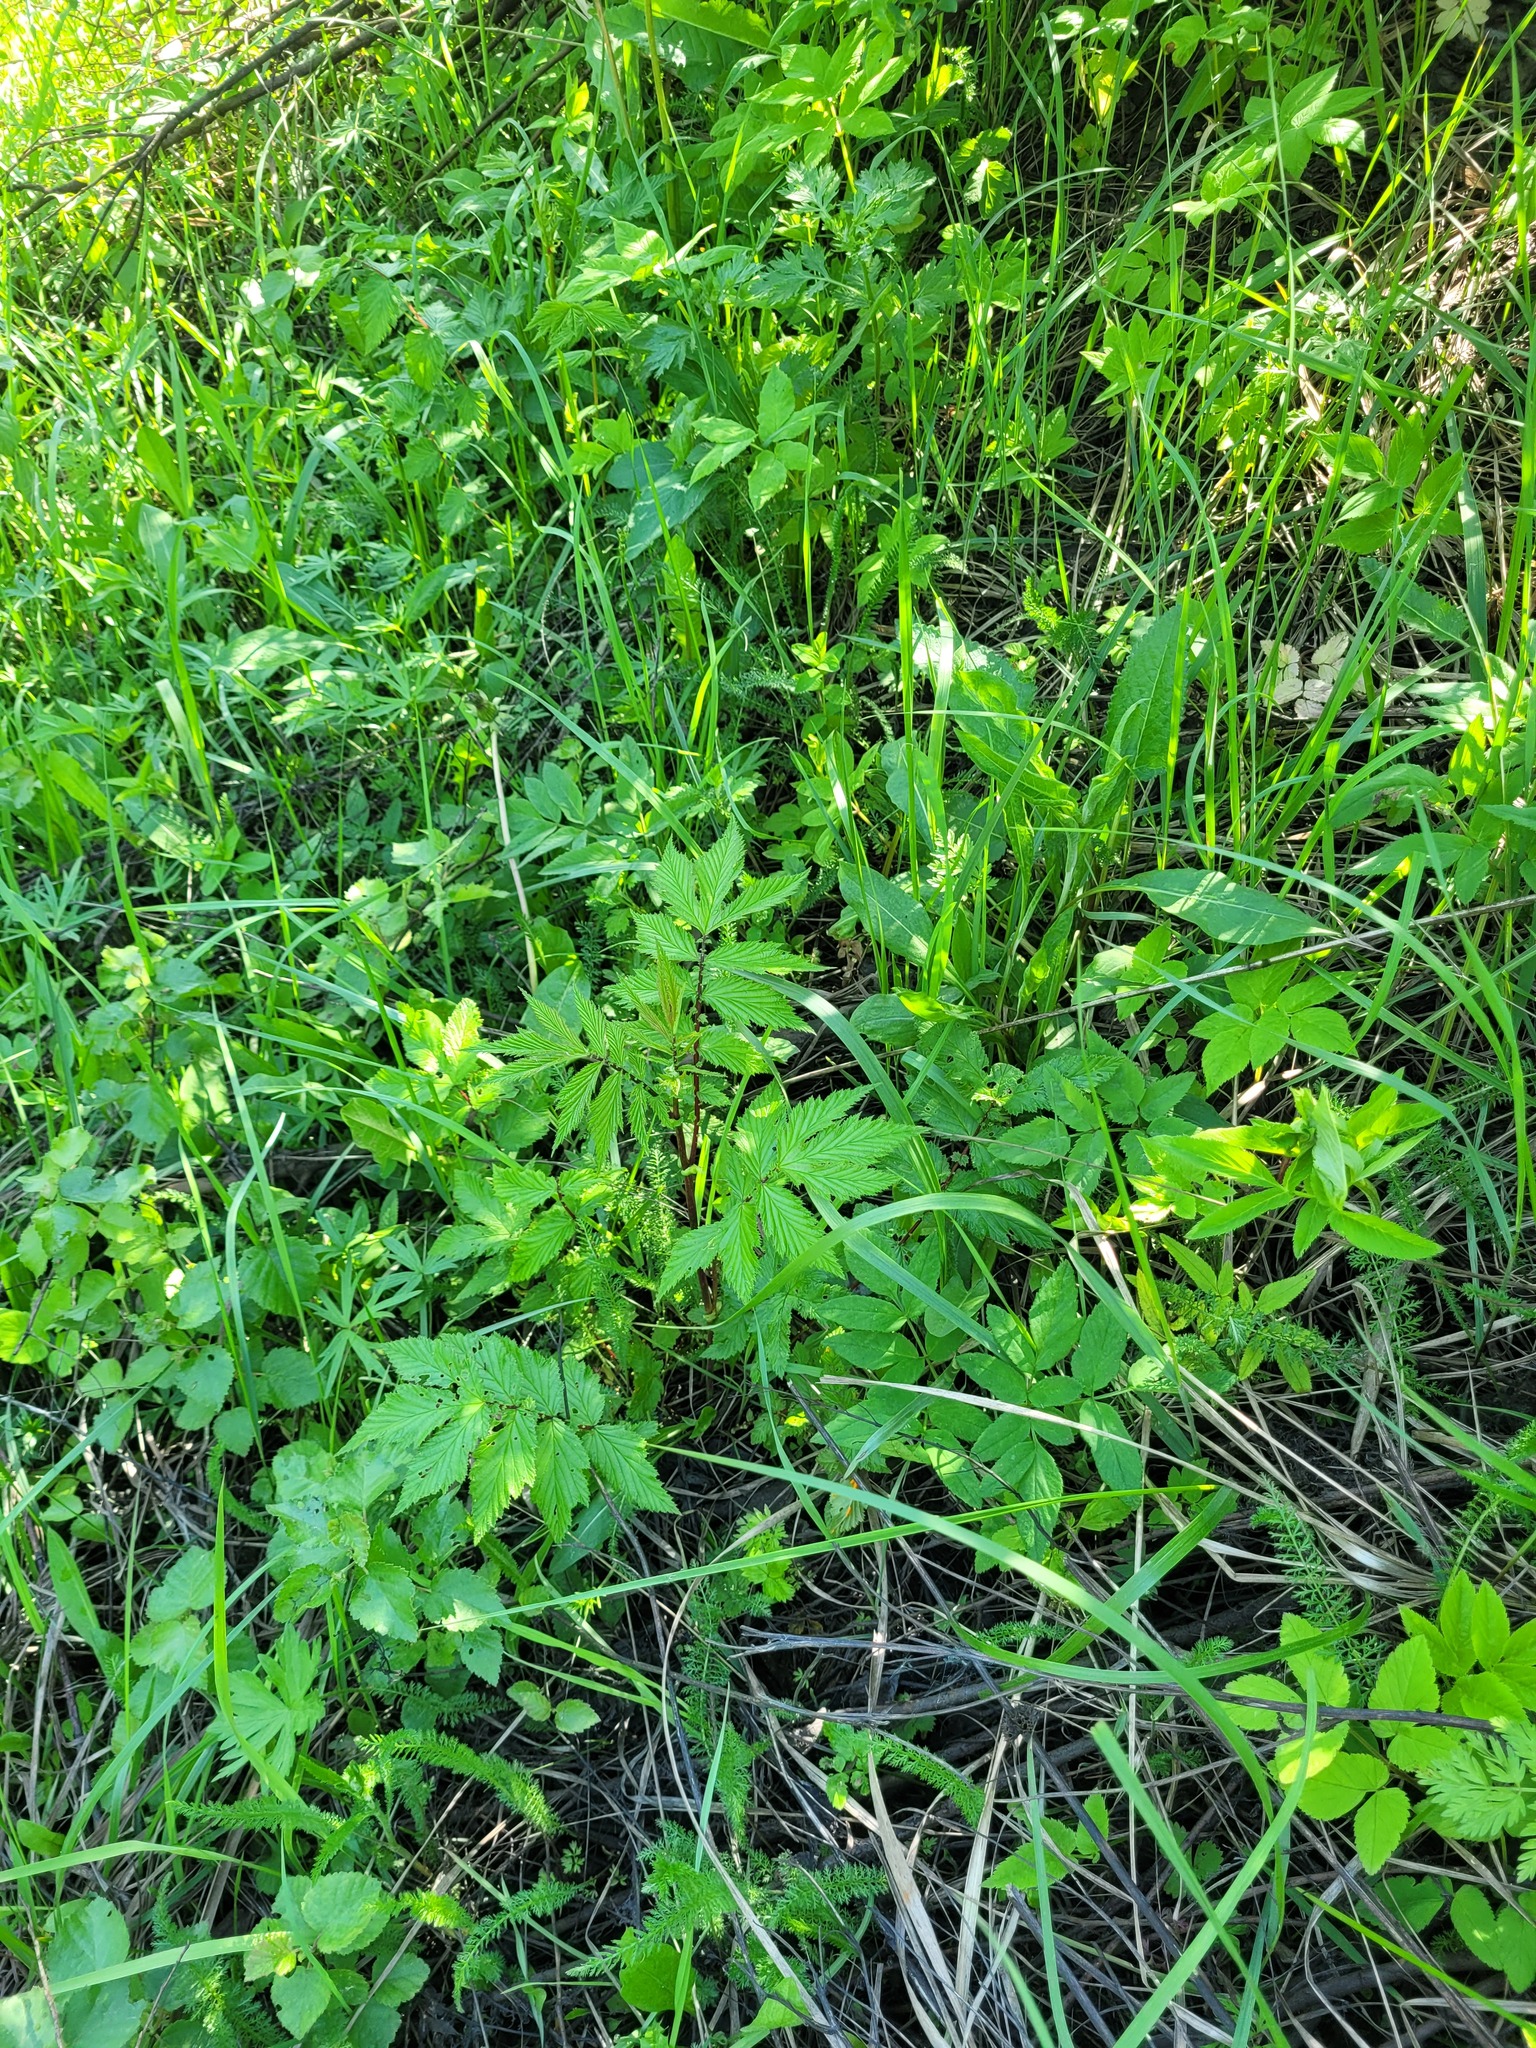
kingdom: Plantae
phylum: Tracheophyta
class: Magnoliopsida
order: Rosales
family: Rosaceae
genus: Filipendula
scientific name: Filipendula ulmaria
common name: Meadowsweet
